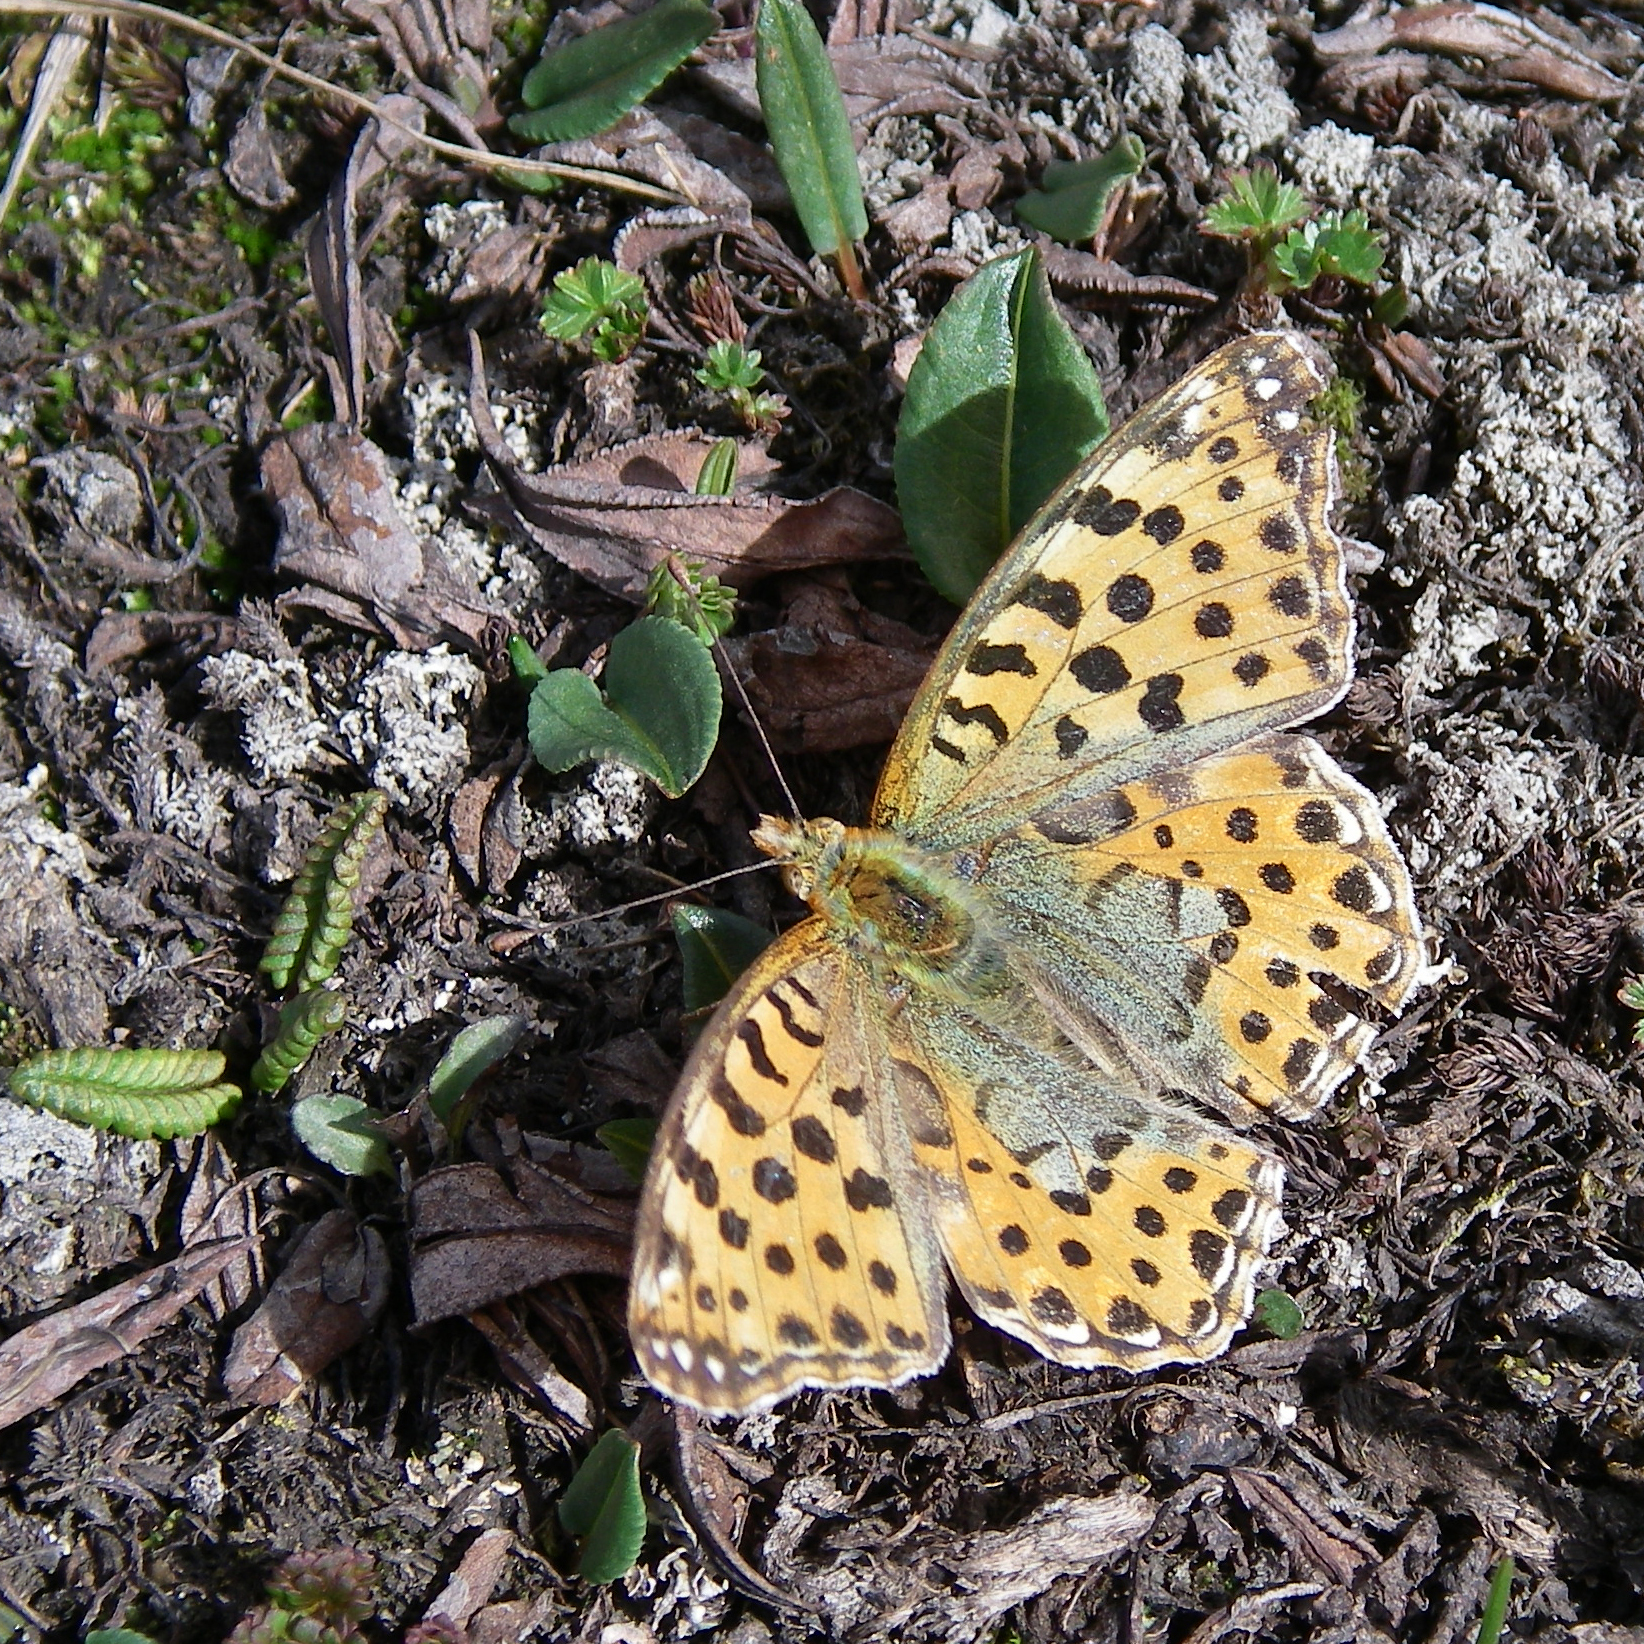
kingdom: Animalia
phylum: Arthropoda
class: Insecta
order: Lepidoptera
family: Nymphalidae
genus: Issoria
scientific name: Issoria lathonia
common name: Queen of spain fritillary
